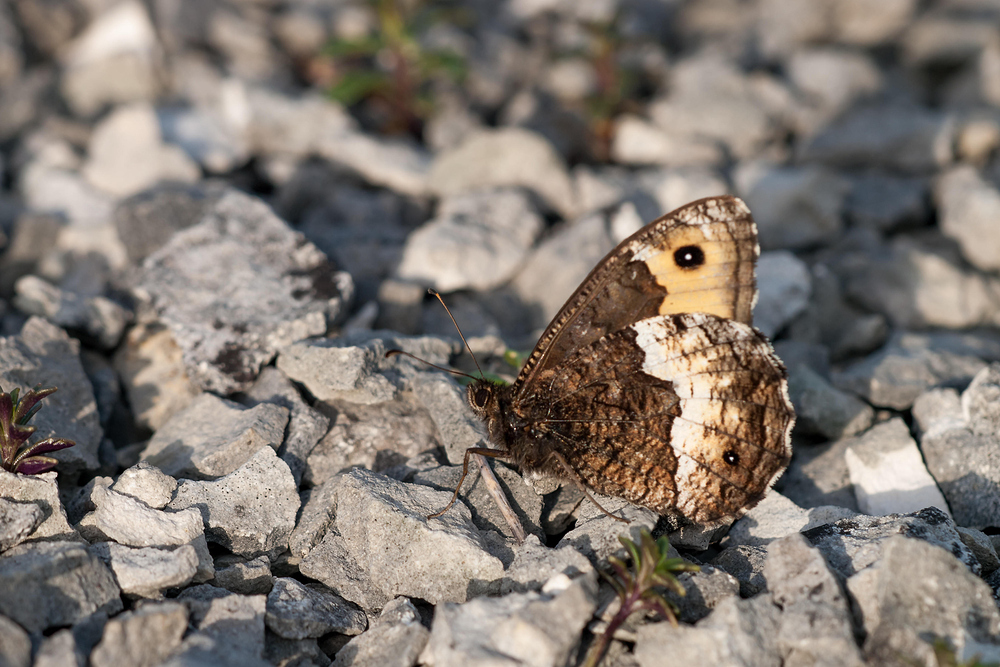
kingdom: Animalia
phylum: Arthropoda
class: Insecta
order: Lepidoptera
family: Nymphalidae
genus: Hipparchia
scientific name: Hipparchia hermione
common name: Rock grayling
